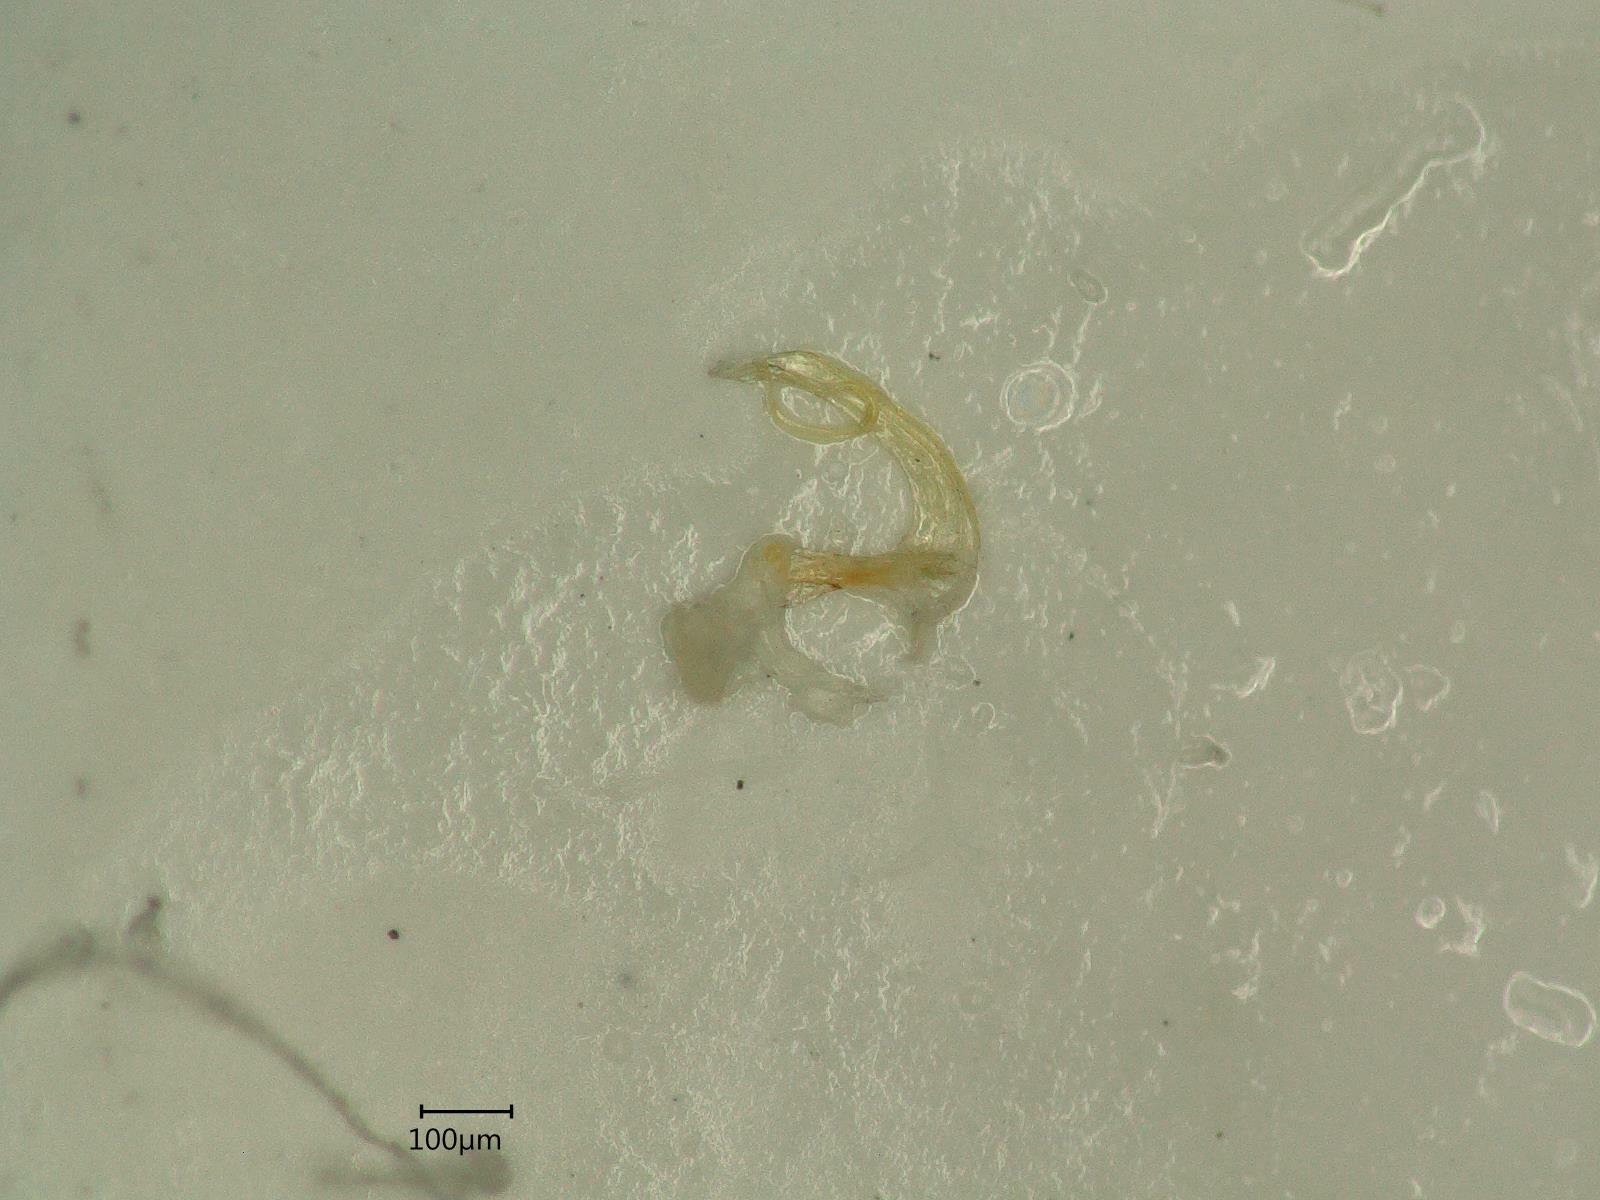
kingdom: Animalia
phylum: Arthropoda
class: Insecta
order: Hemiptera
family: Cicadellidae
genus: Eupteryx
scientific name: Eupteryx aurata
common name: Leafhopper
